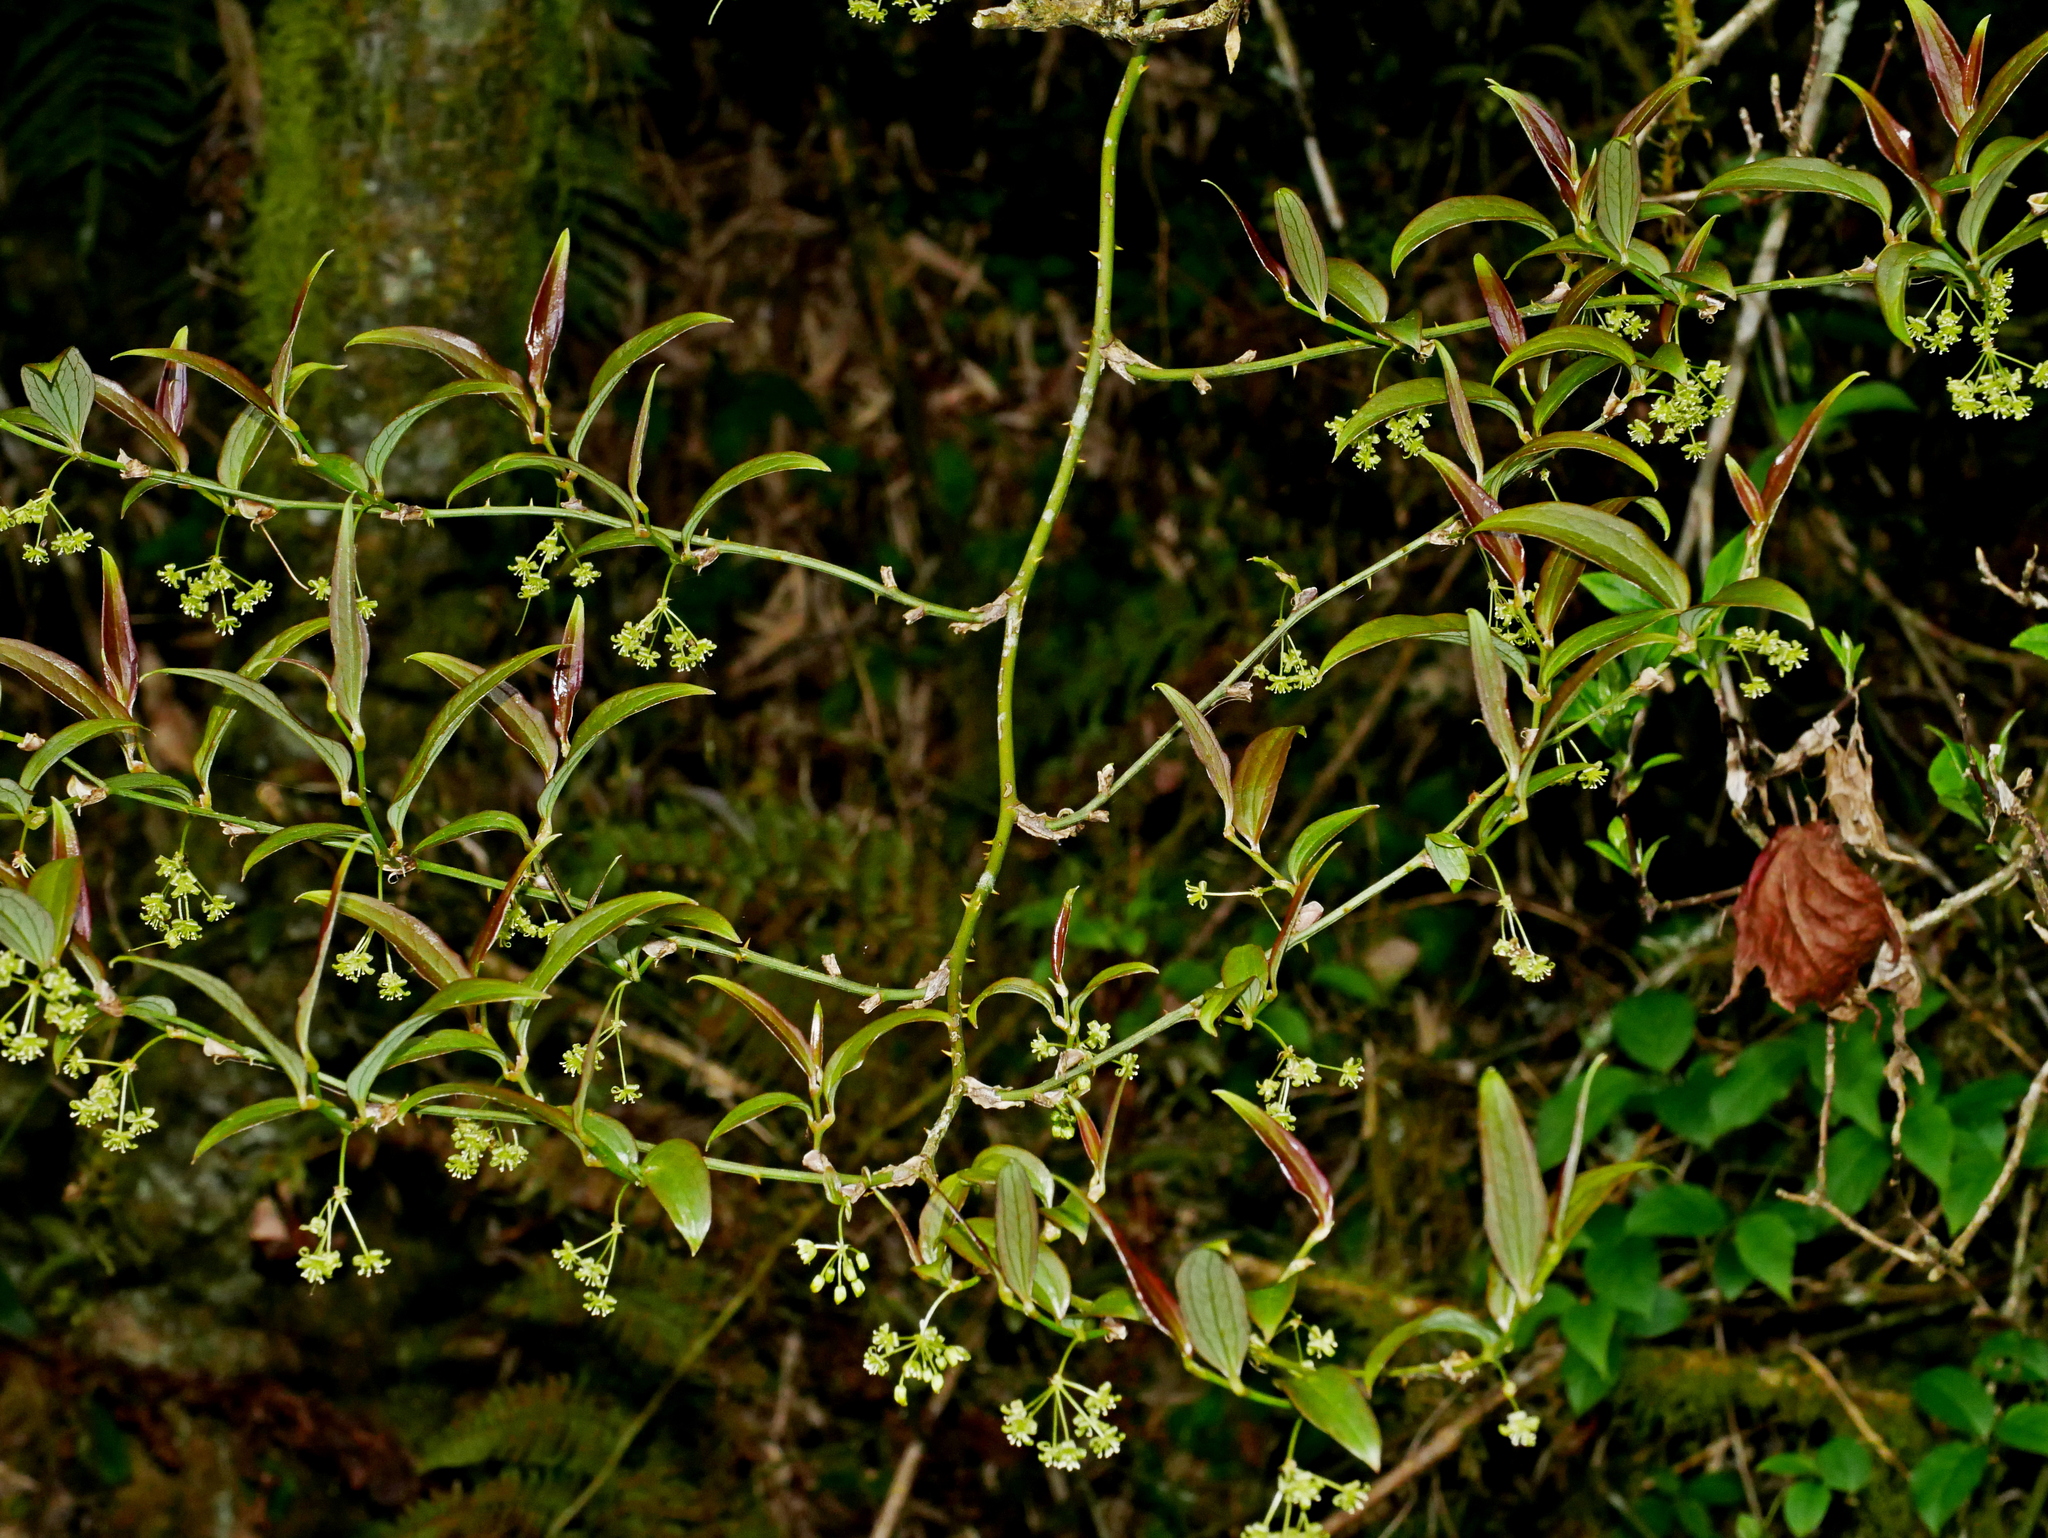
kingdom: Plantae
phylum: Tracheophyta
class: Liliopsida
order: Liliales
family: Smilacaceae
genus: Smilax
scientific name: Smilax discotis
